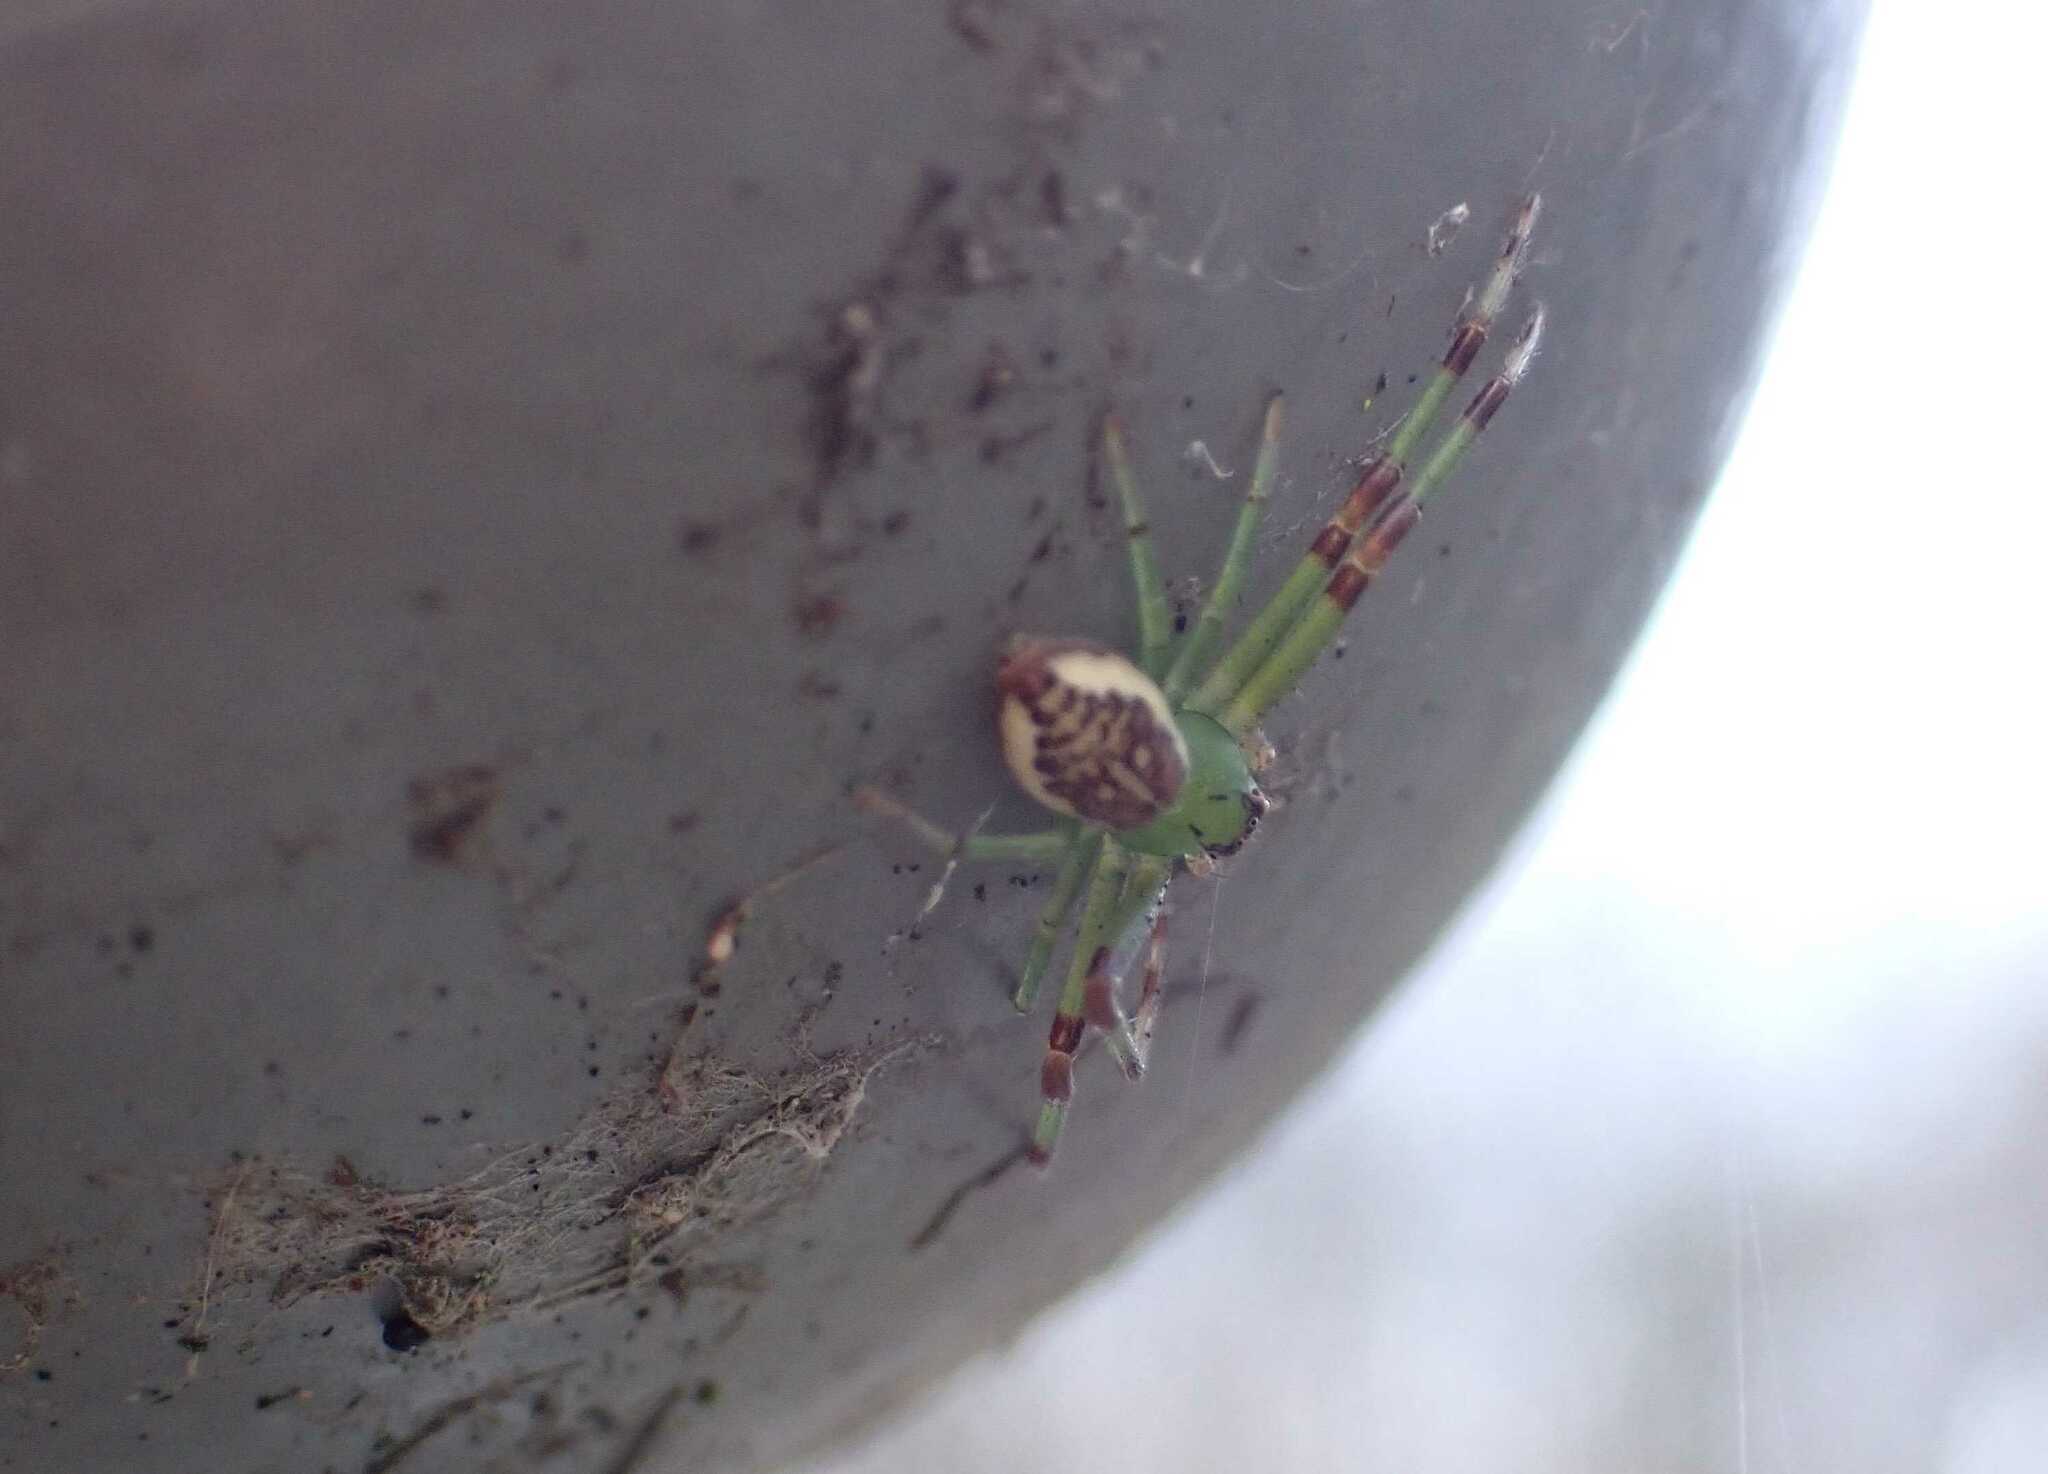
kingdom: Animalia
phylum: Arthropoda
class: Arachnida
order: Araneae
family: Thomisidae
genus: Diaea
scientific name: Diaea dorsata
